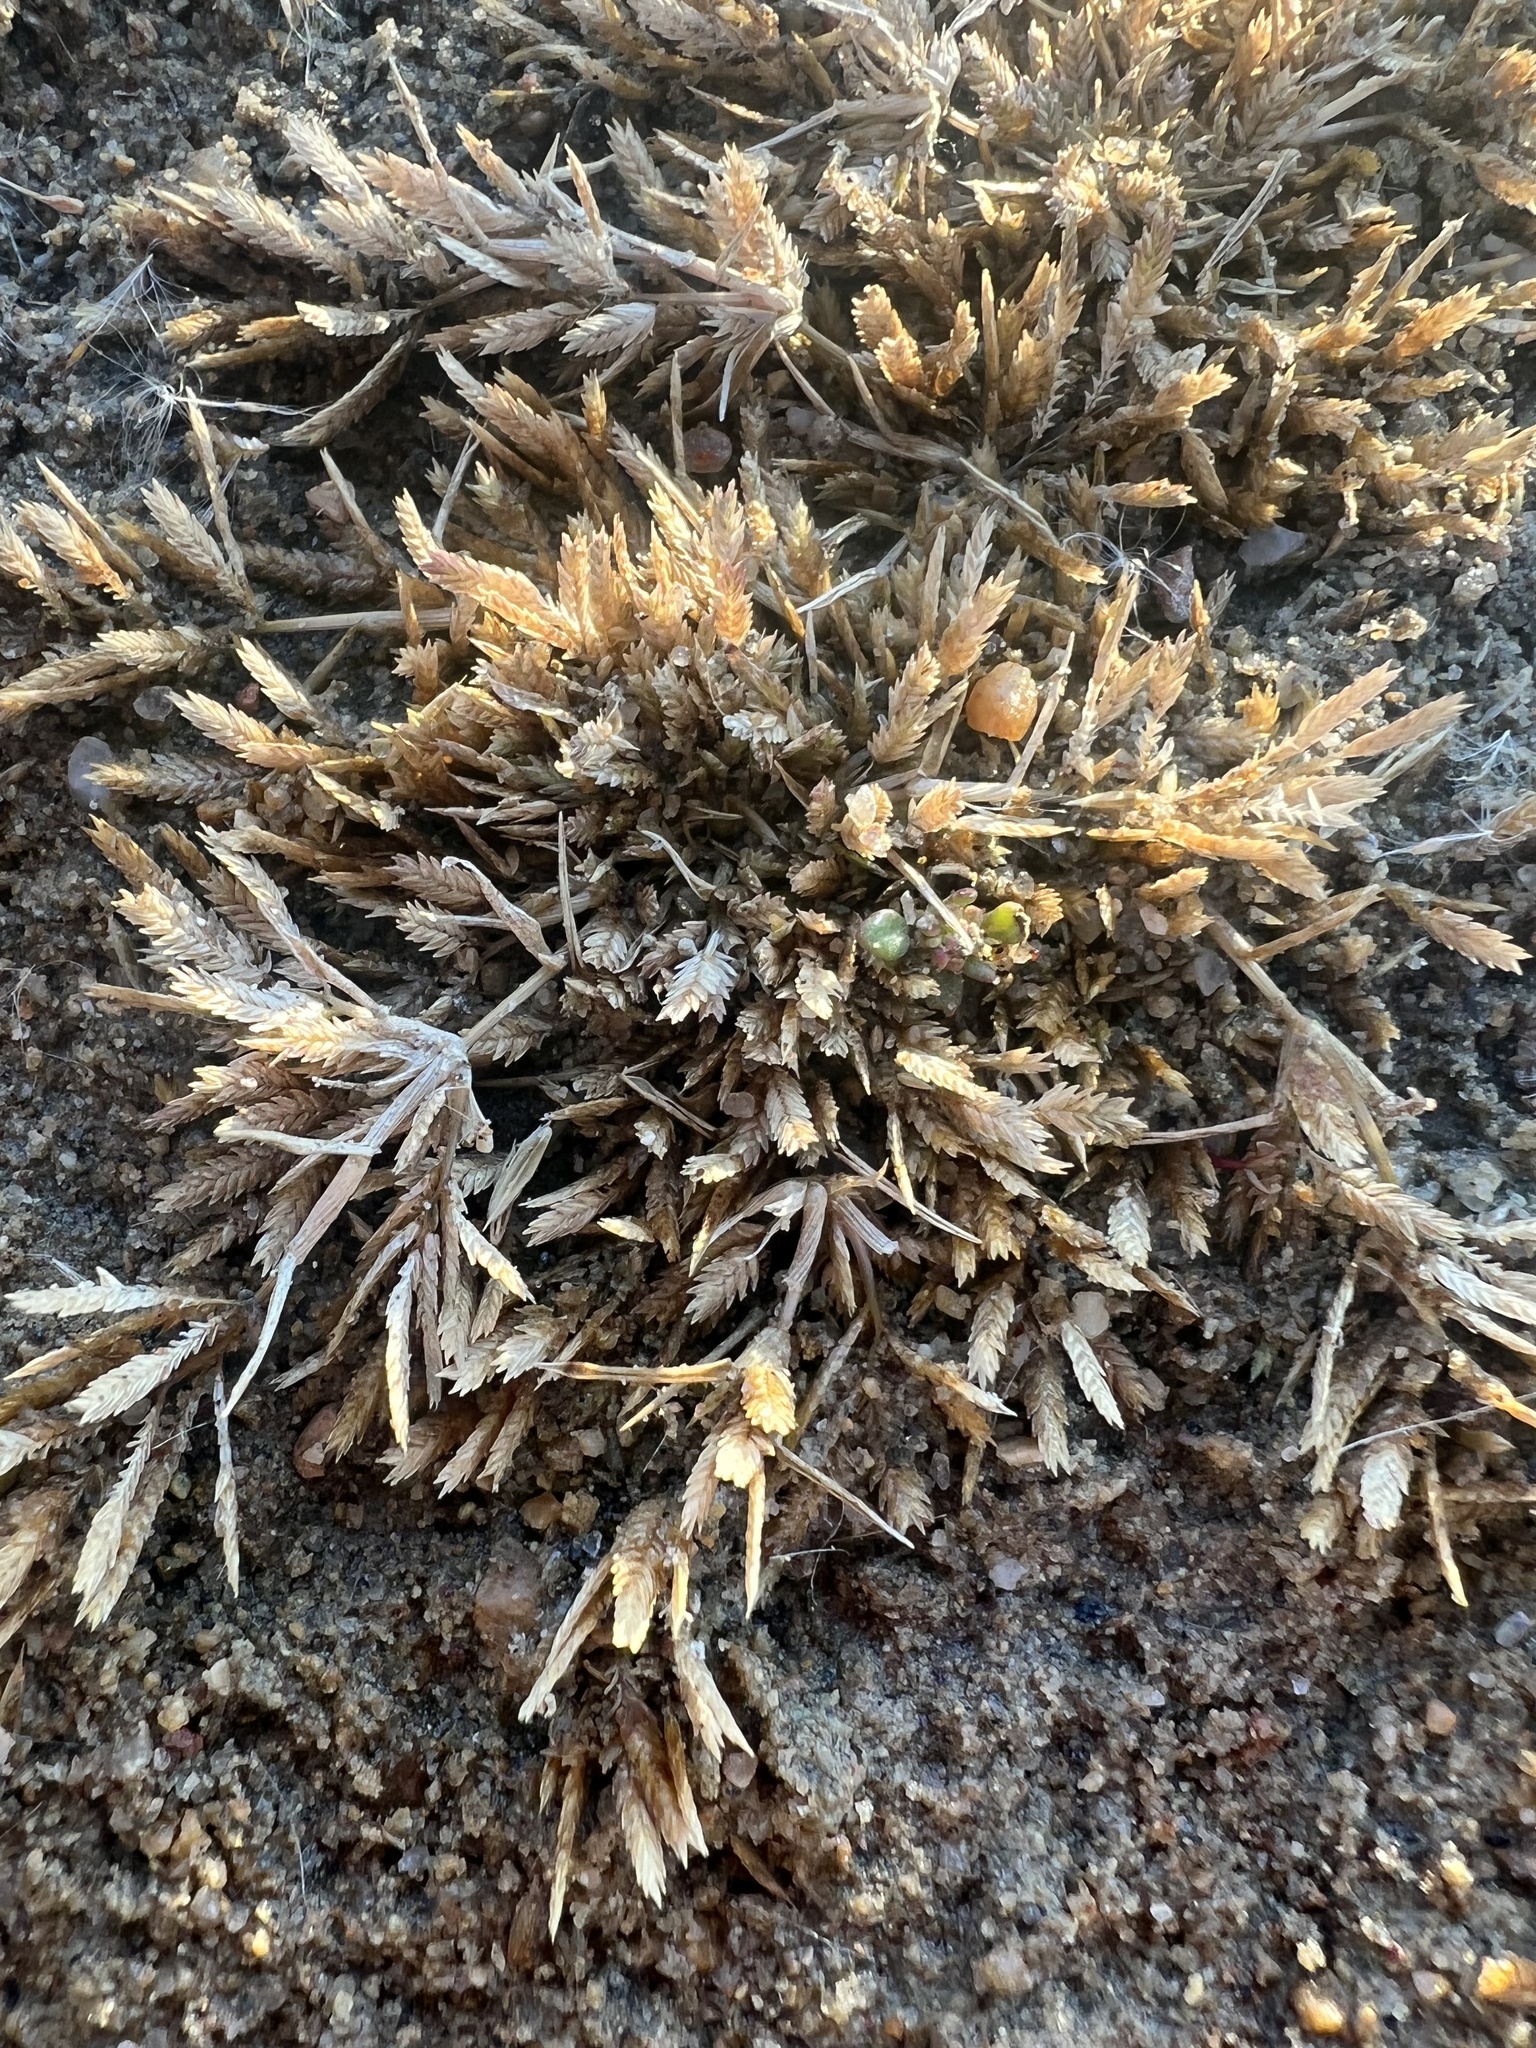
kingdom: Plantae
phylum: Tracheophyta
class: Liliopsida
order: Poales
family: Poaceae
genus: Eragrostis
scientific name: Eragrostis hypnoides
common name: Creeping love grass
